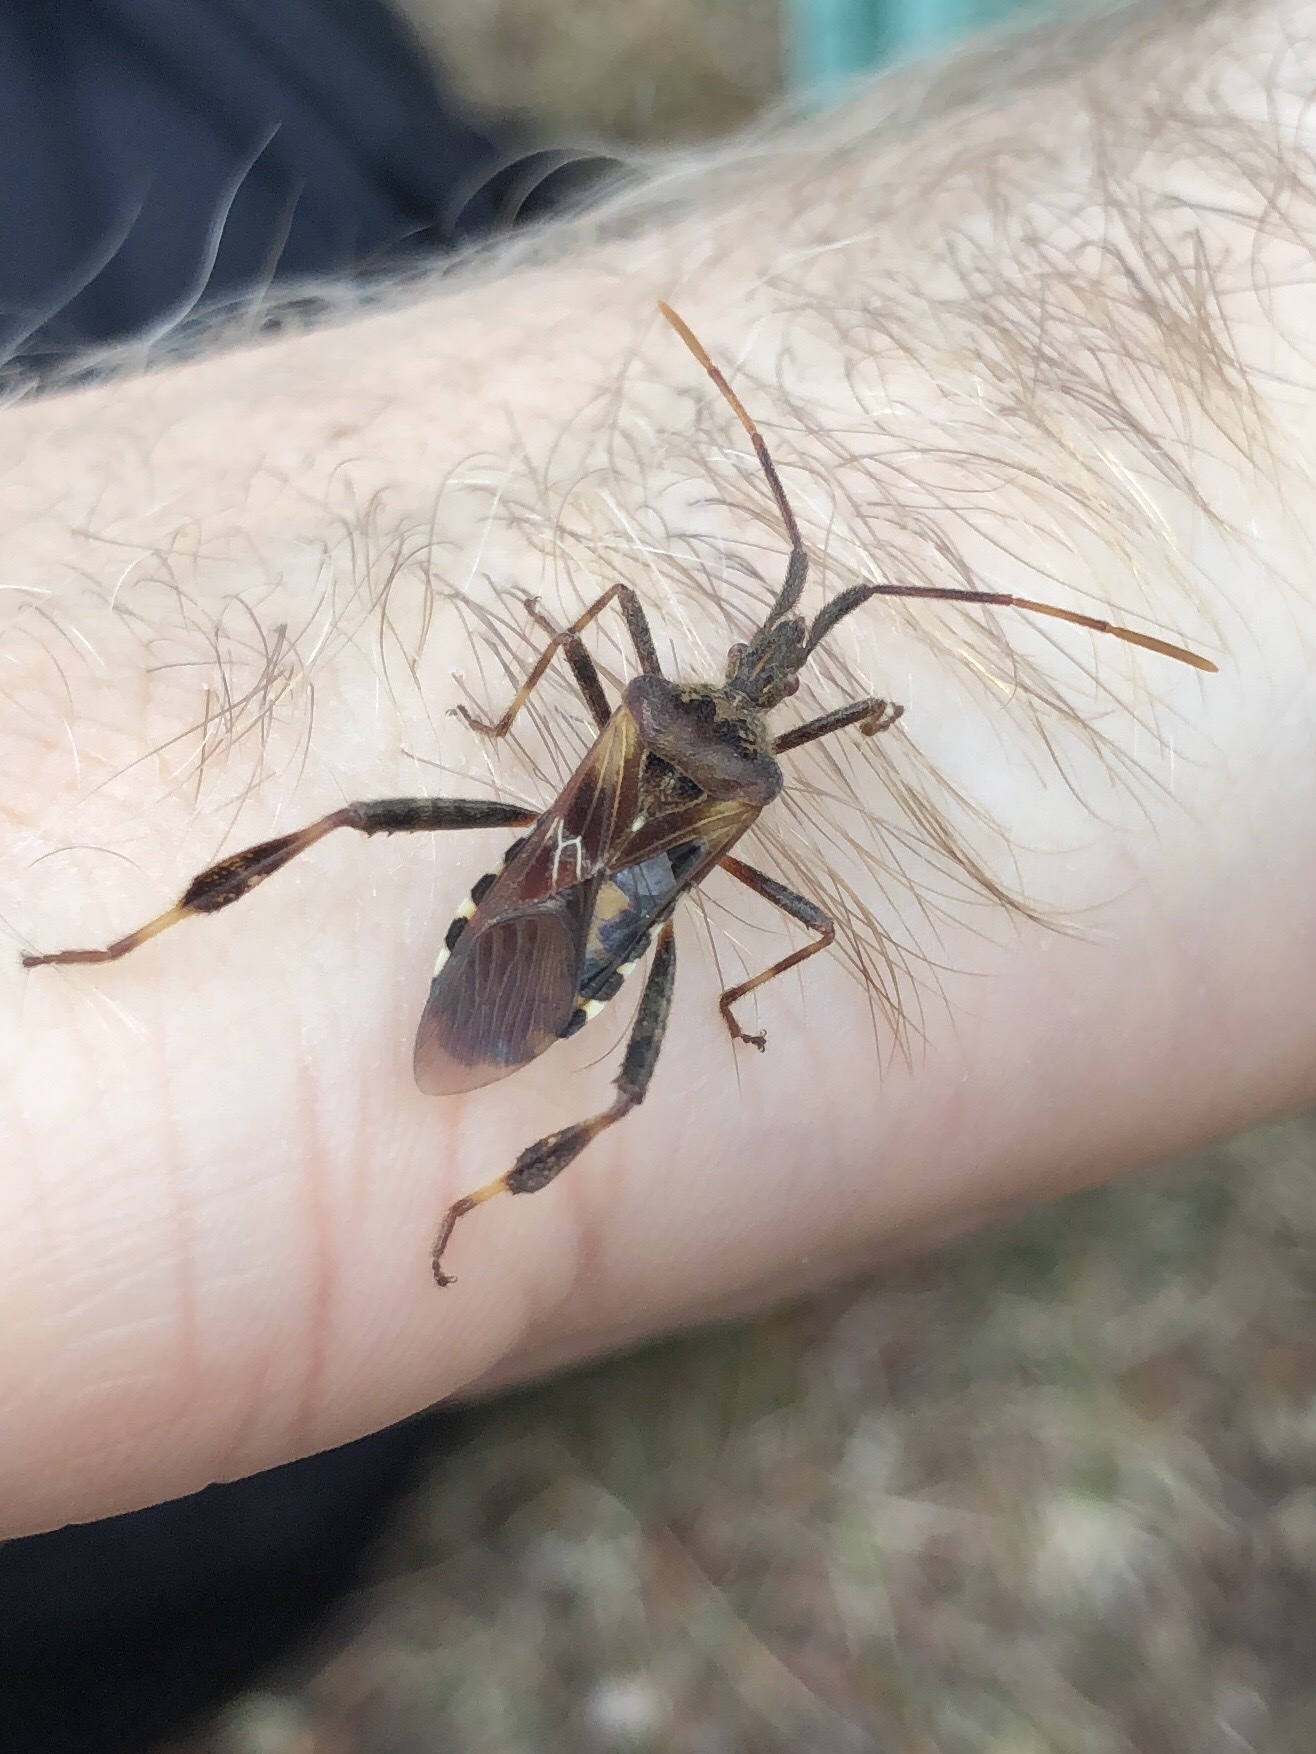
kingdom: Animalia
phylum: Arthropoda
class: Insecta
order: Hemiptera
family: Coreidae
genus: Leptoglossus
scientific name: Leptoglossus occidentalis
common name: Western conifer-seed bug
